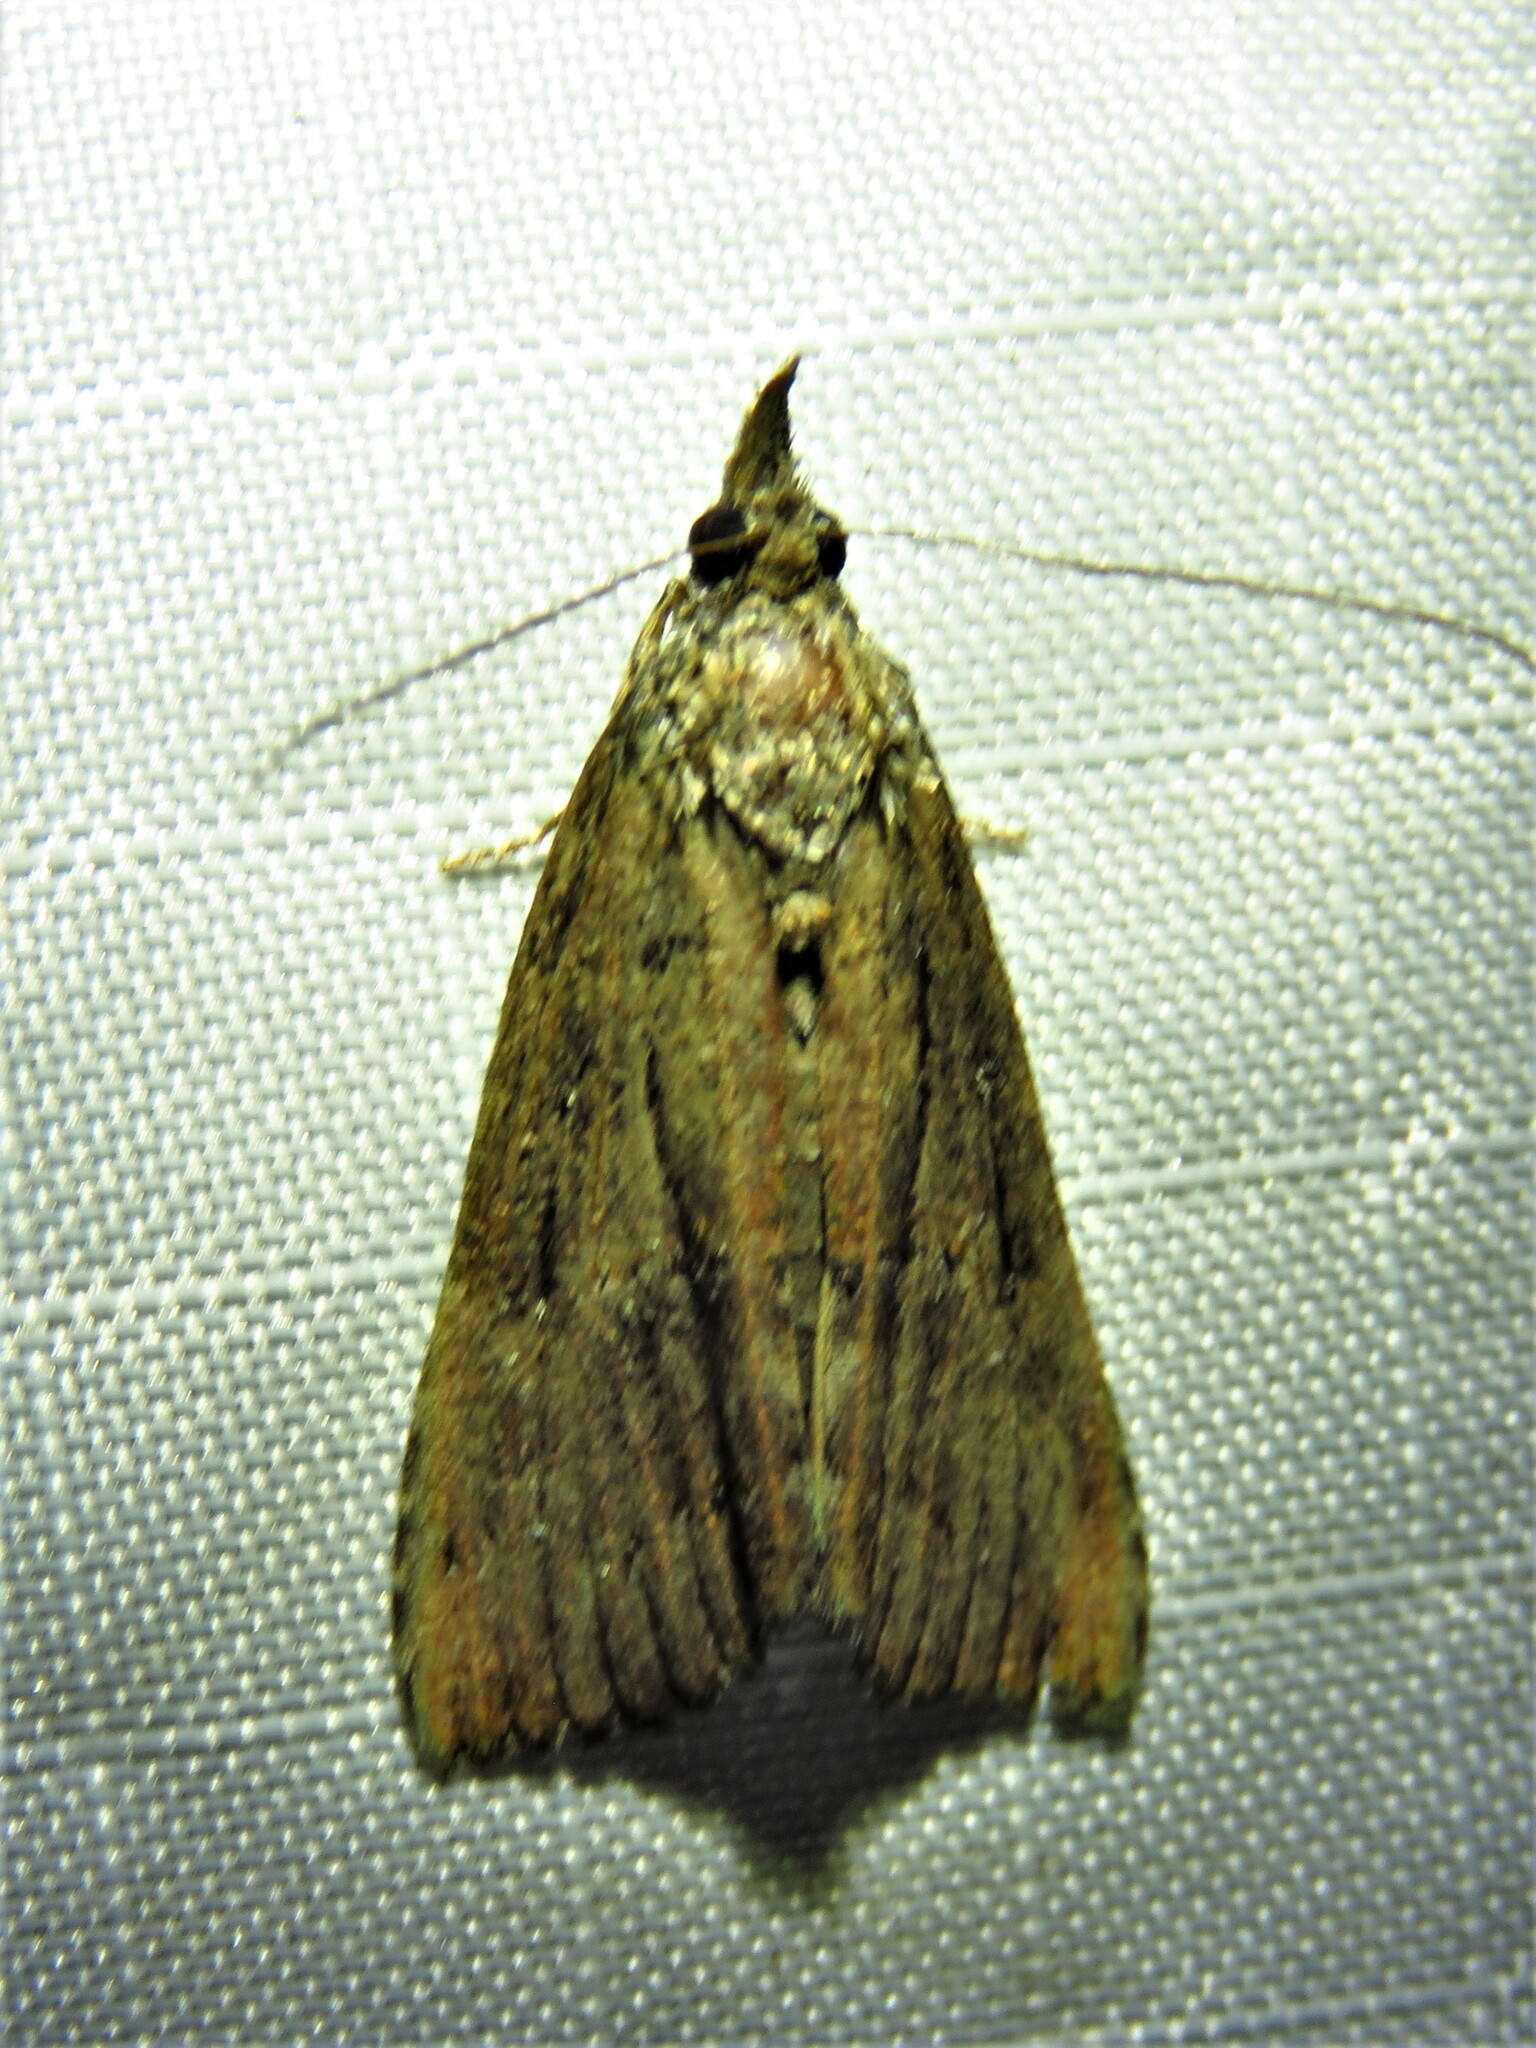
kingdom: Animalia
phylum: Arthropoda
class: Insecta
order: Lepidoptera
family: Erebidae
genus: Hypena
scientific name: Hypena scabra
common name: Green cloverworm
